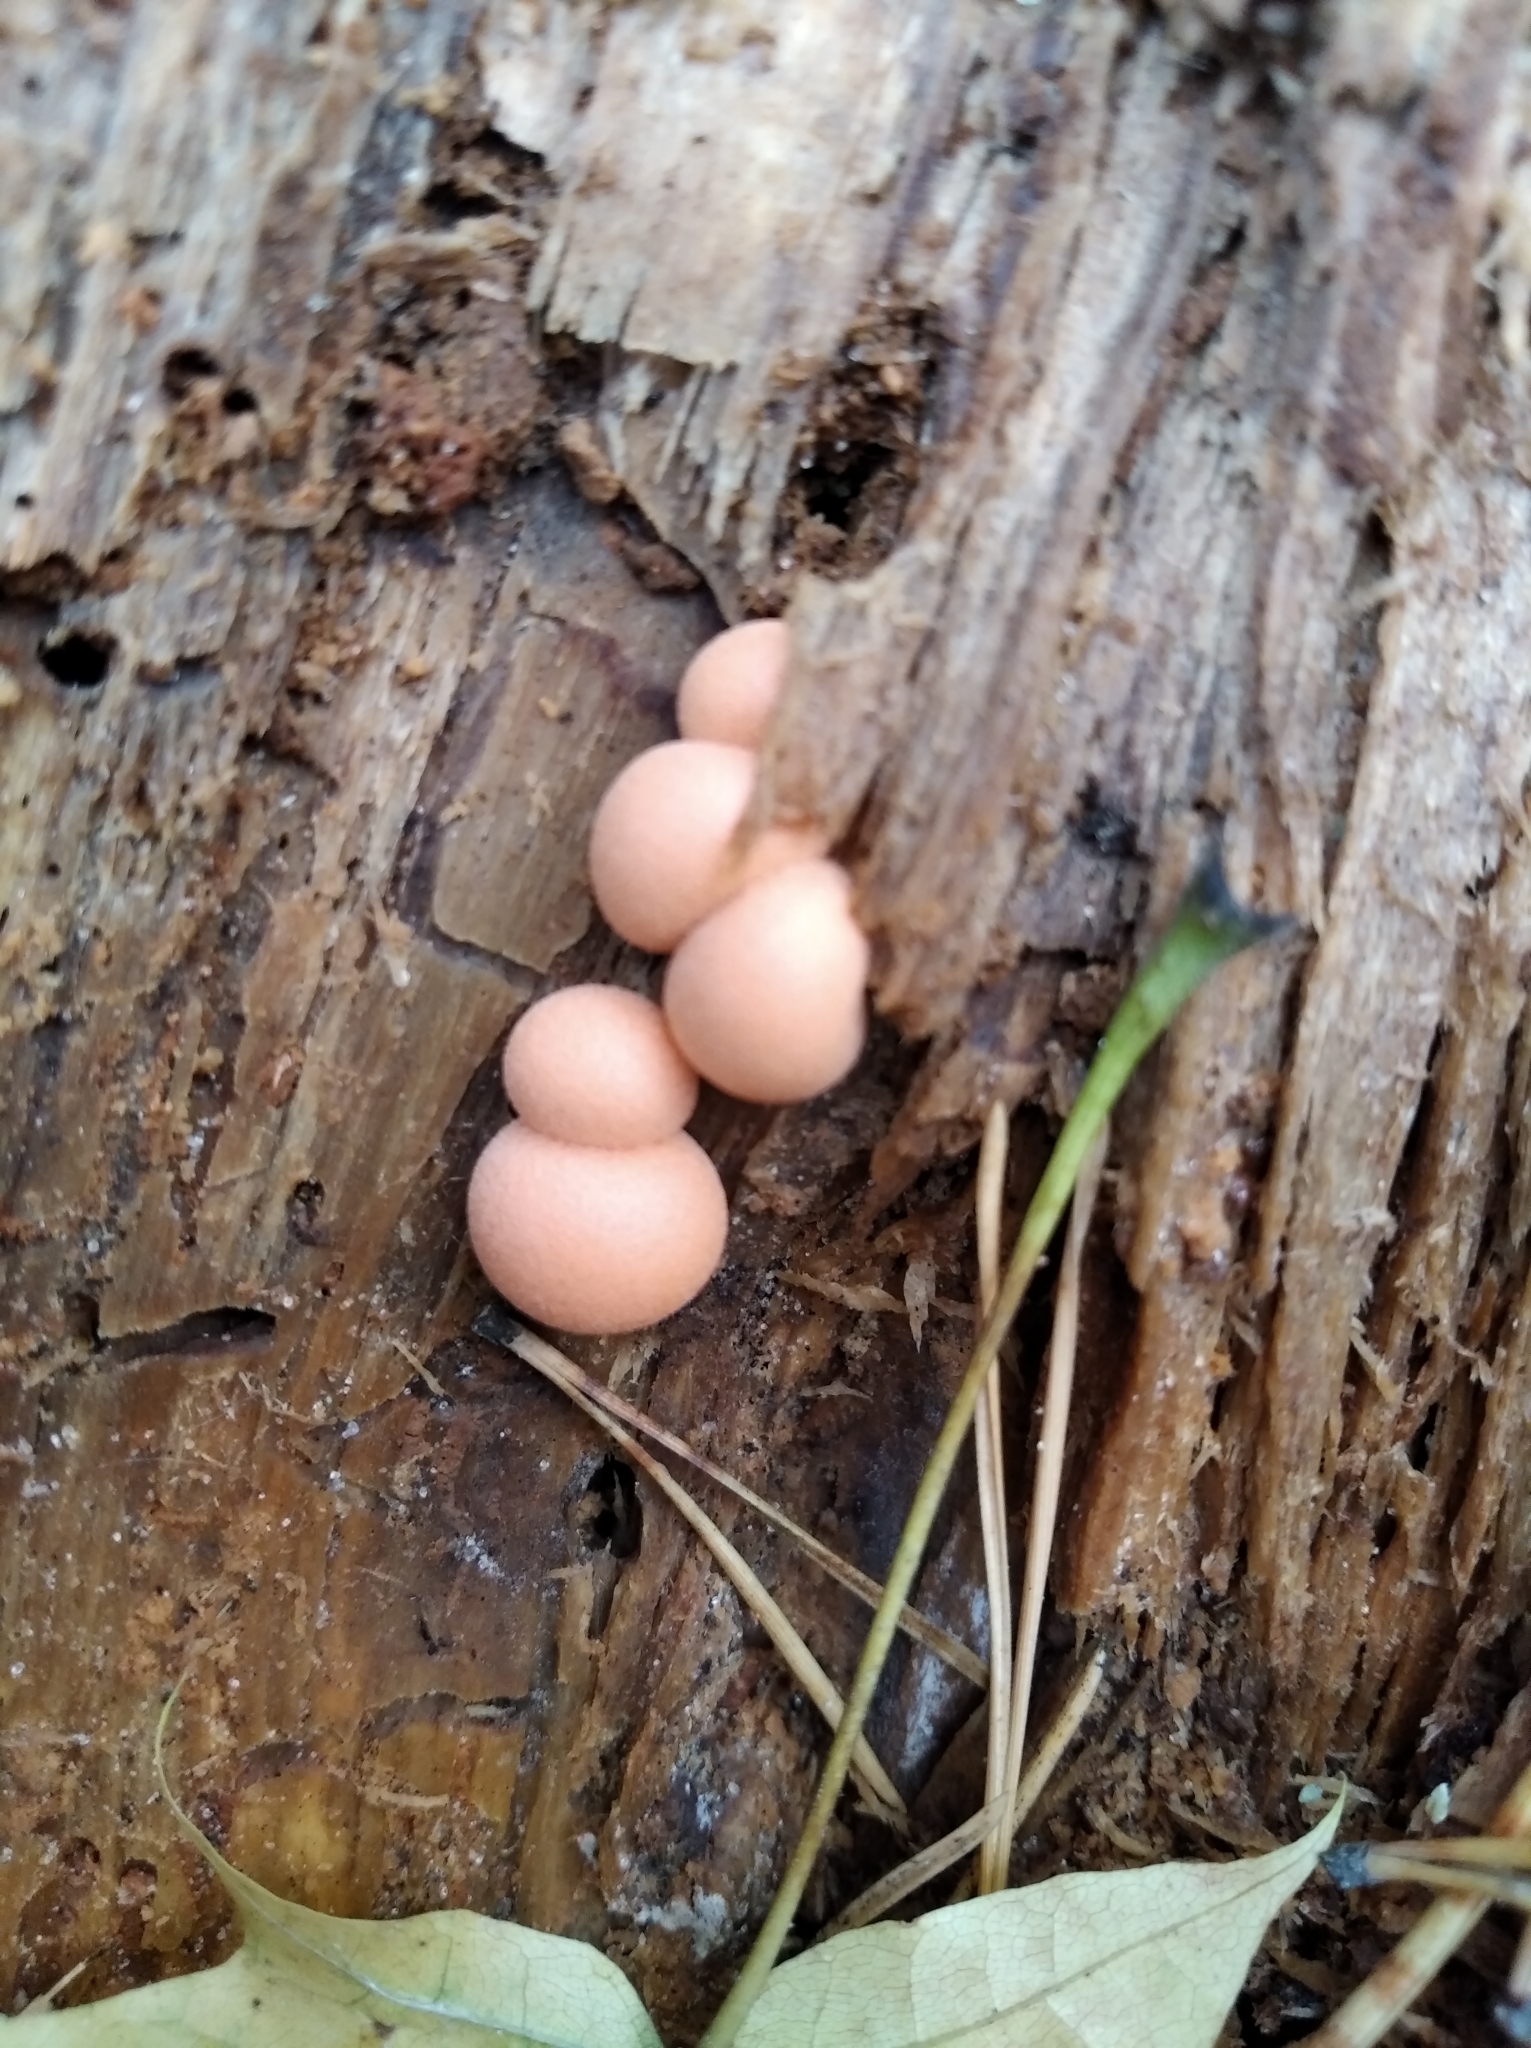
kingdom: Protozoa
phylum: Mycetozoa
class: Myxomycetes
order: Cribrariales
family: Tubiferaceae
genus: Lycogala
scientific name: Lycogala epidendrum
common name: Wolf's milk
